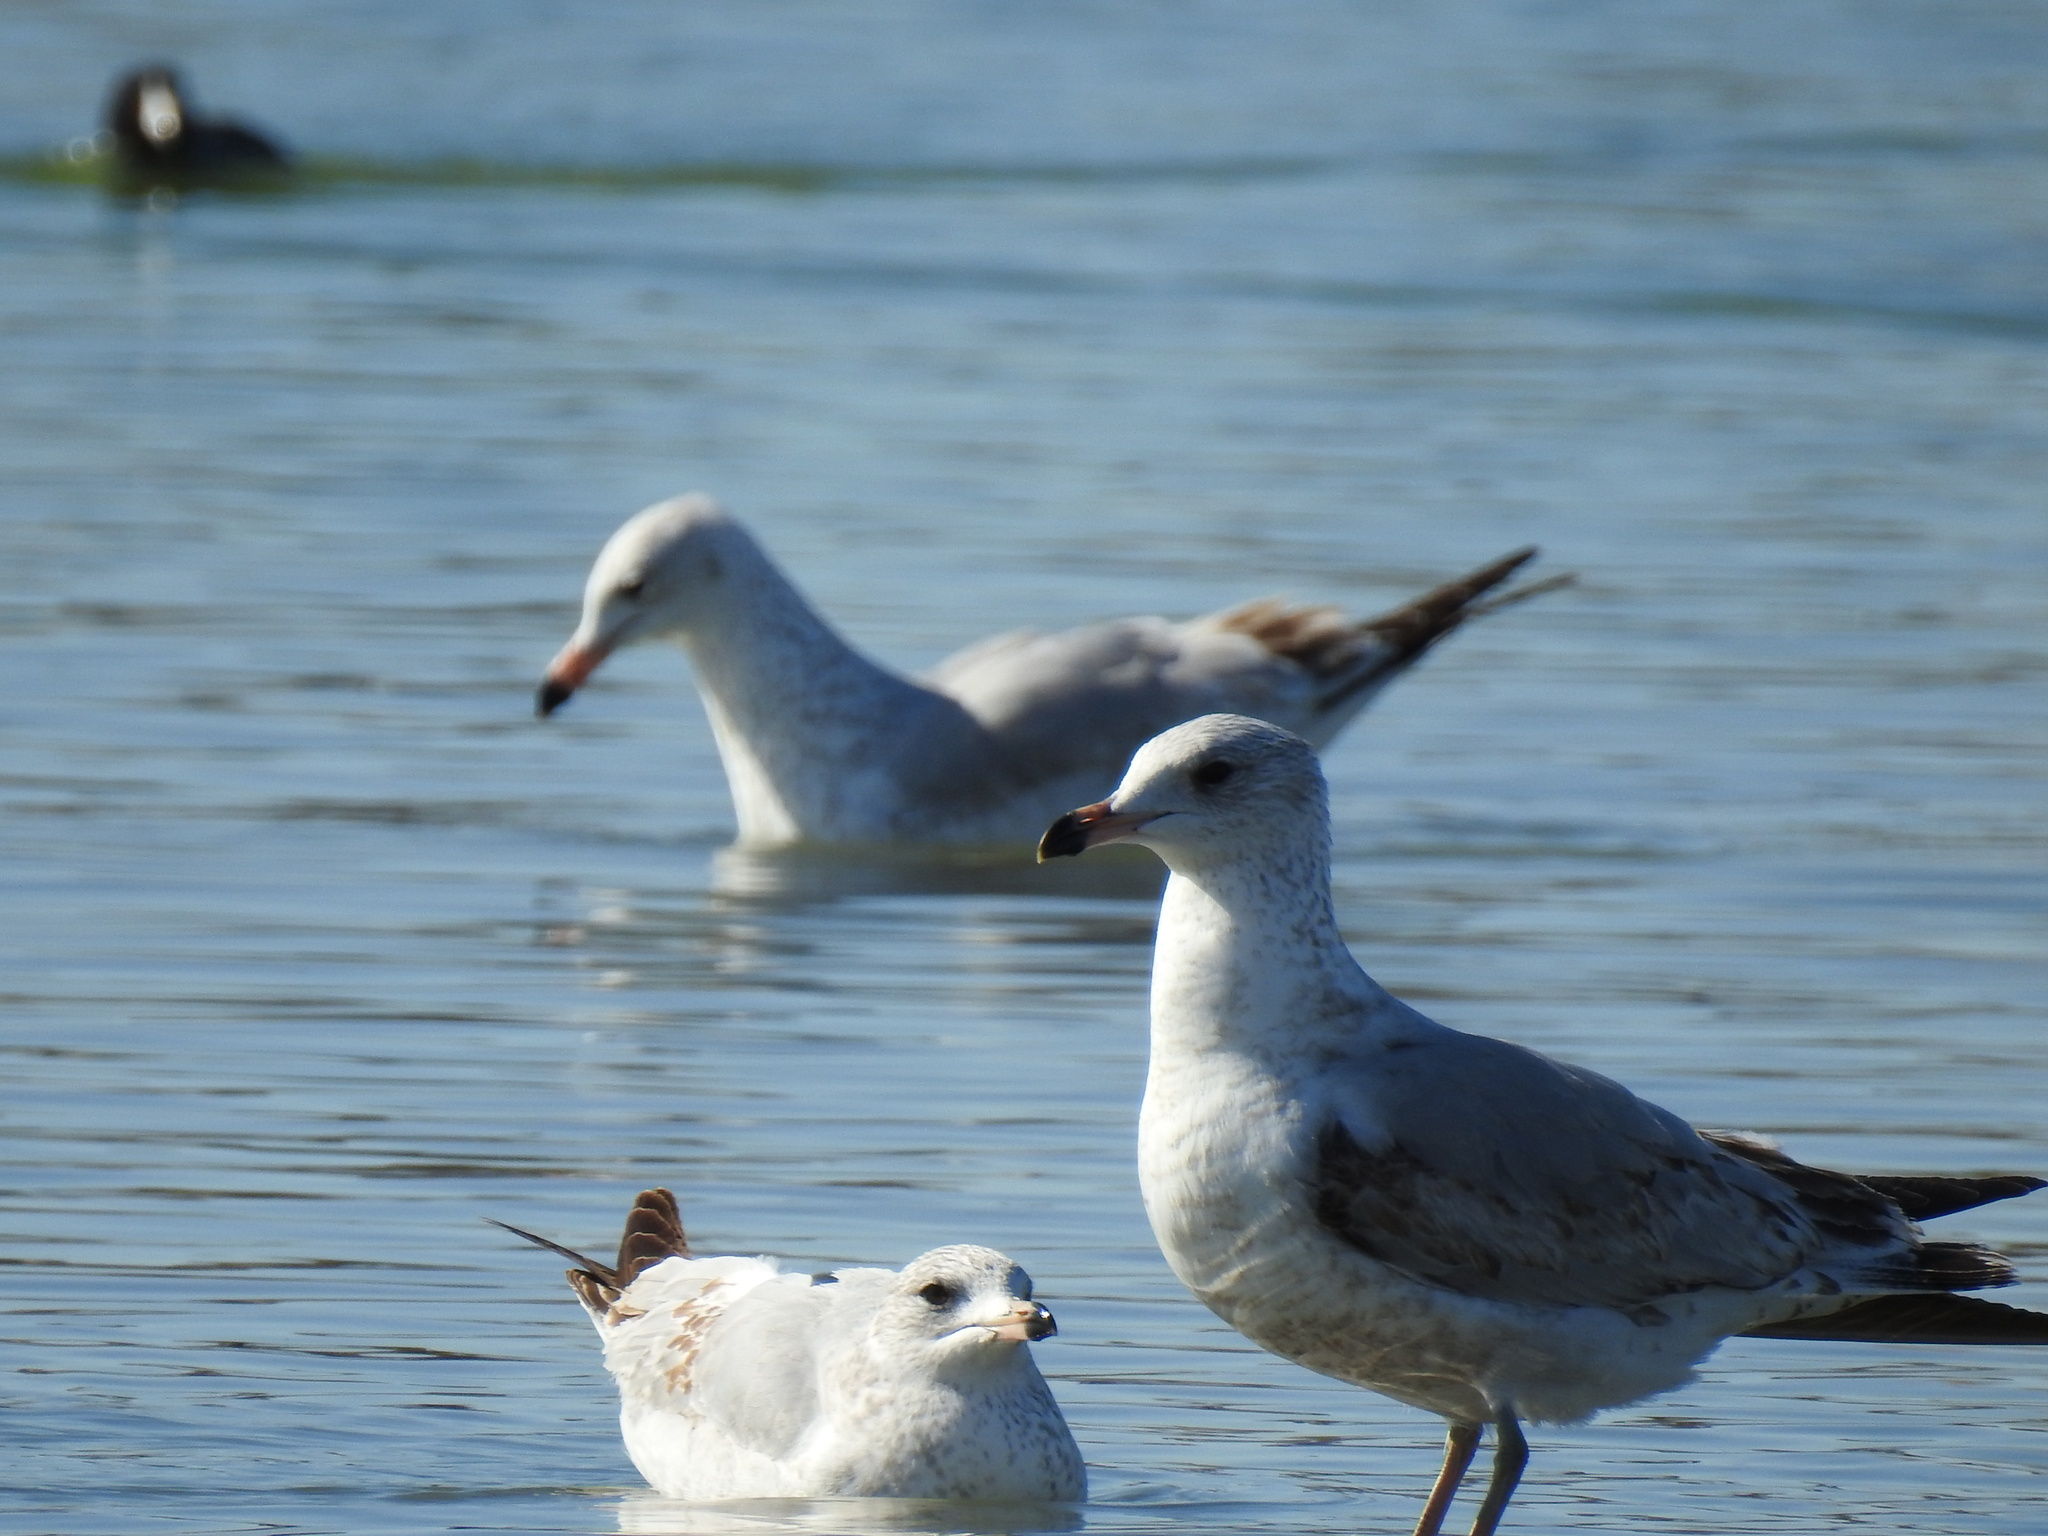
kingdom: Animalia
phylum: Chordata
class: Aves
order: Charadriiformes
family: Laridae
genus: Larus
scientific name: Larus delawarensis
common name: Ring-billed gull
